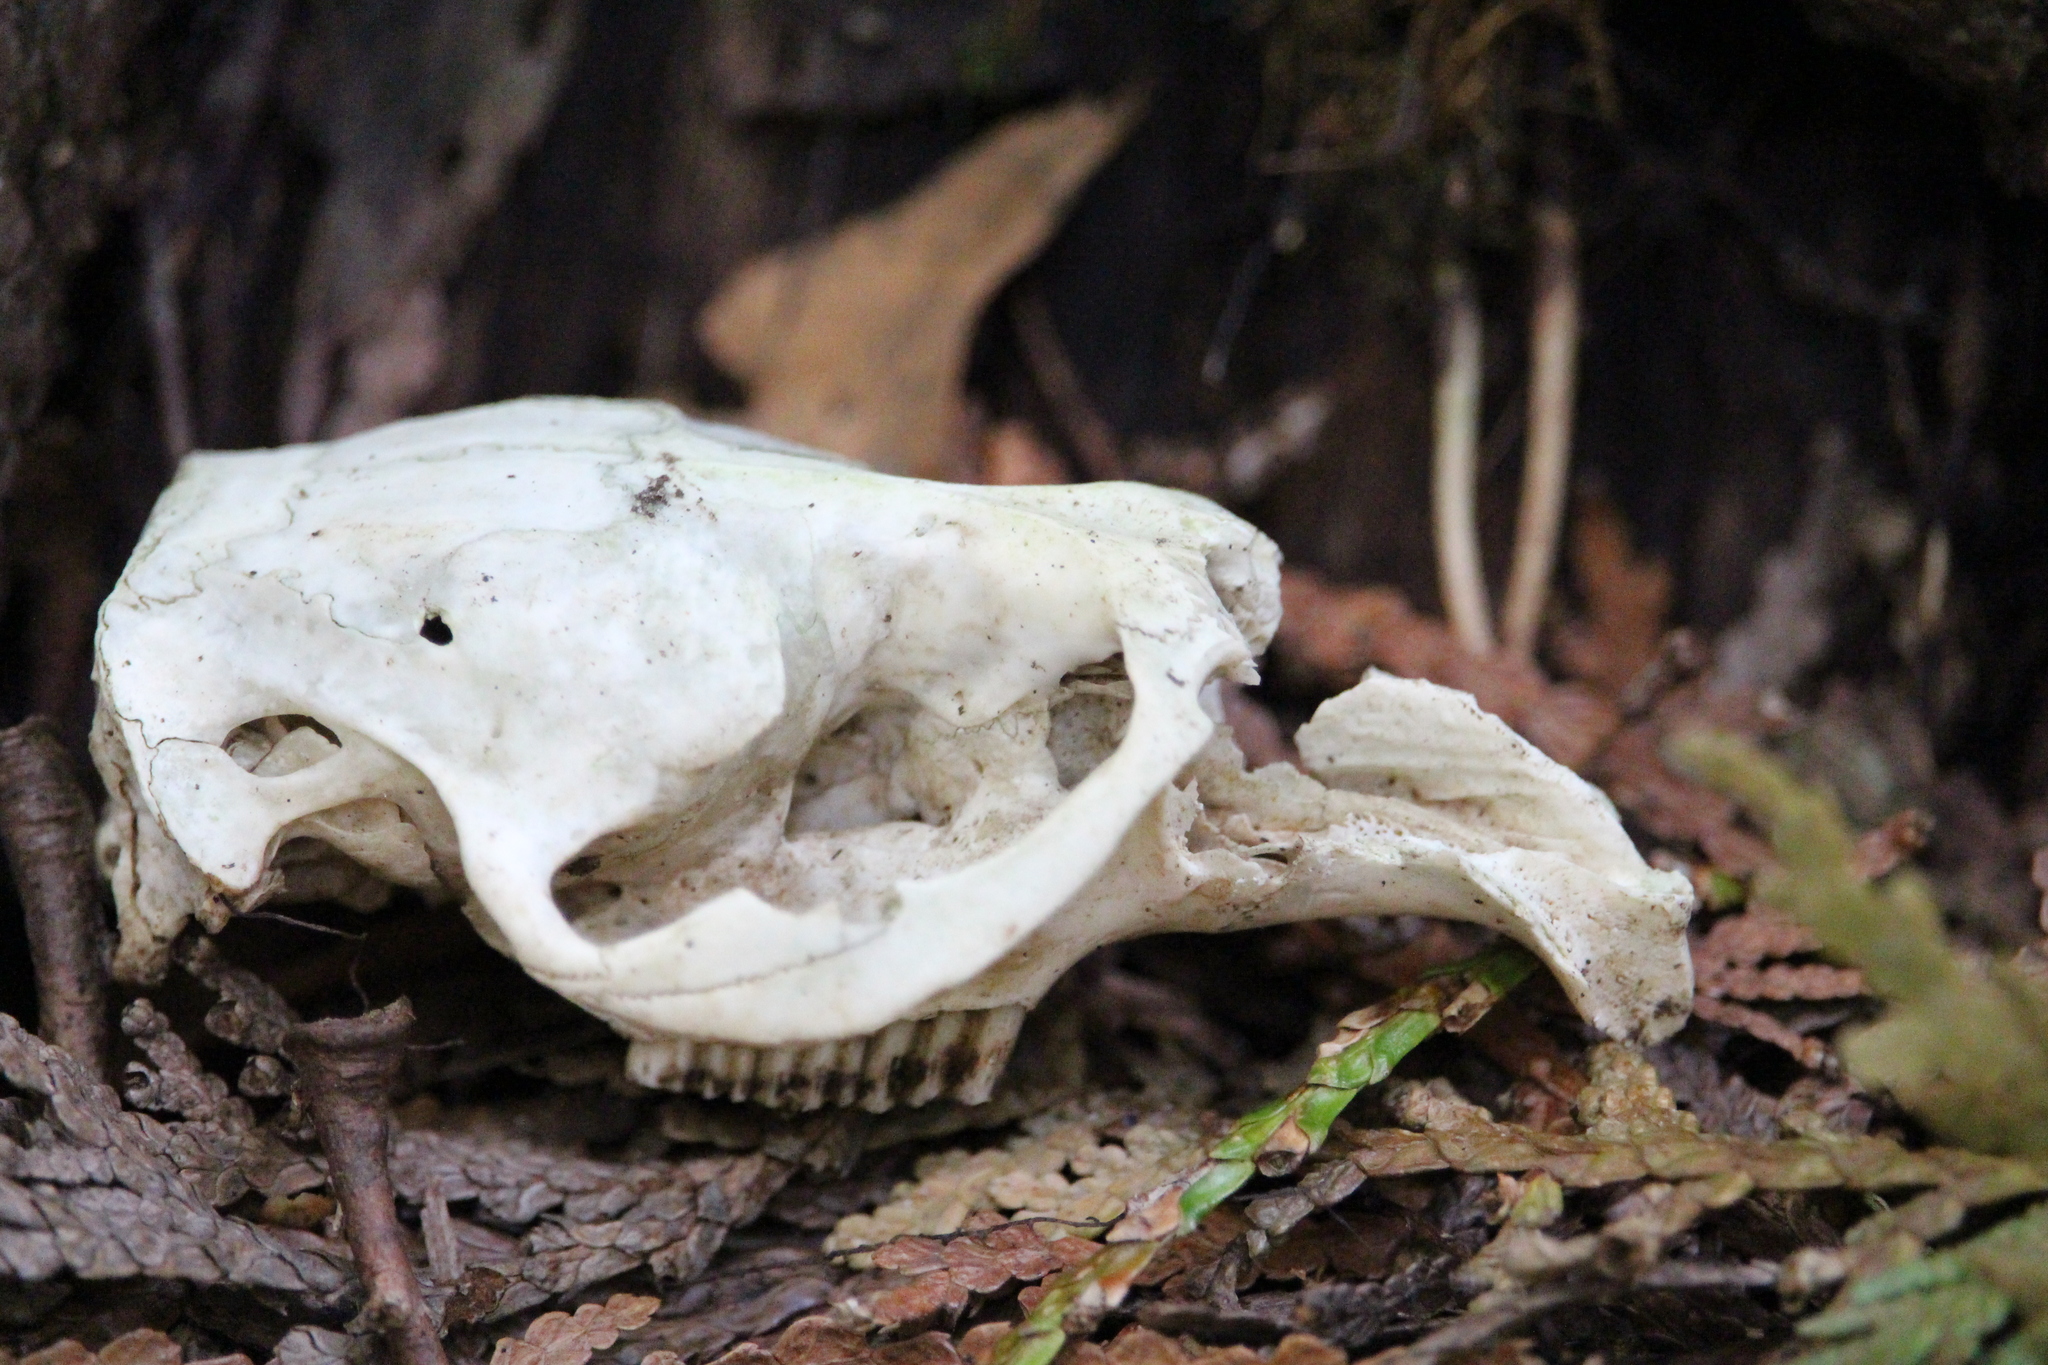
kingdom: Animalia
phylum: Chordata
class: Mammalia
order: Rodentia
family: Cricetidae
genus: Ondatra
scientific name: Ondatra zibethicus
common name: Muskrat
